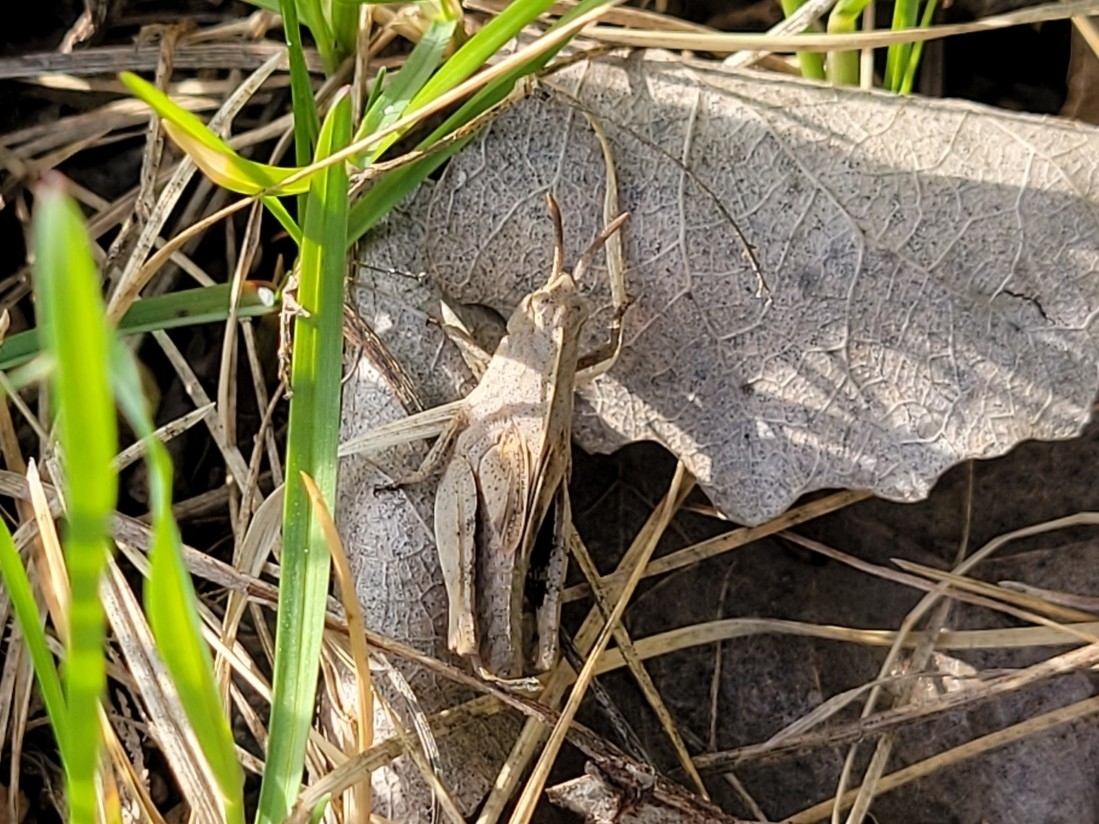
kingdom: Animalia
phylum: Arthropoda
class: Insecta
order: Orthoptera
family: Acrididae
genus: Chortophaga
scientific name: Chortophaga viridifasciata
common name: Green-striped grasshopper
